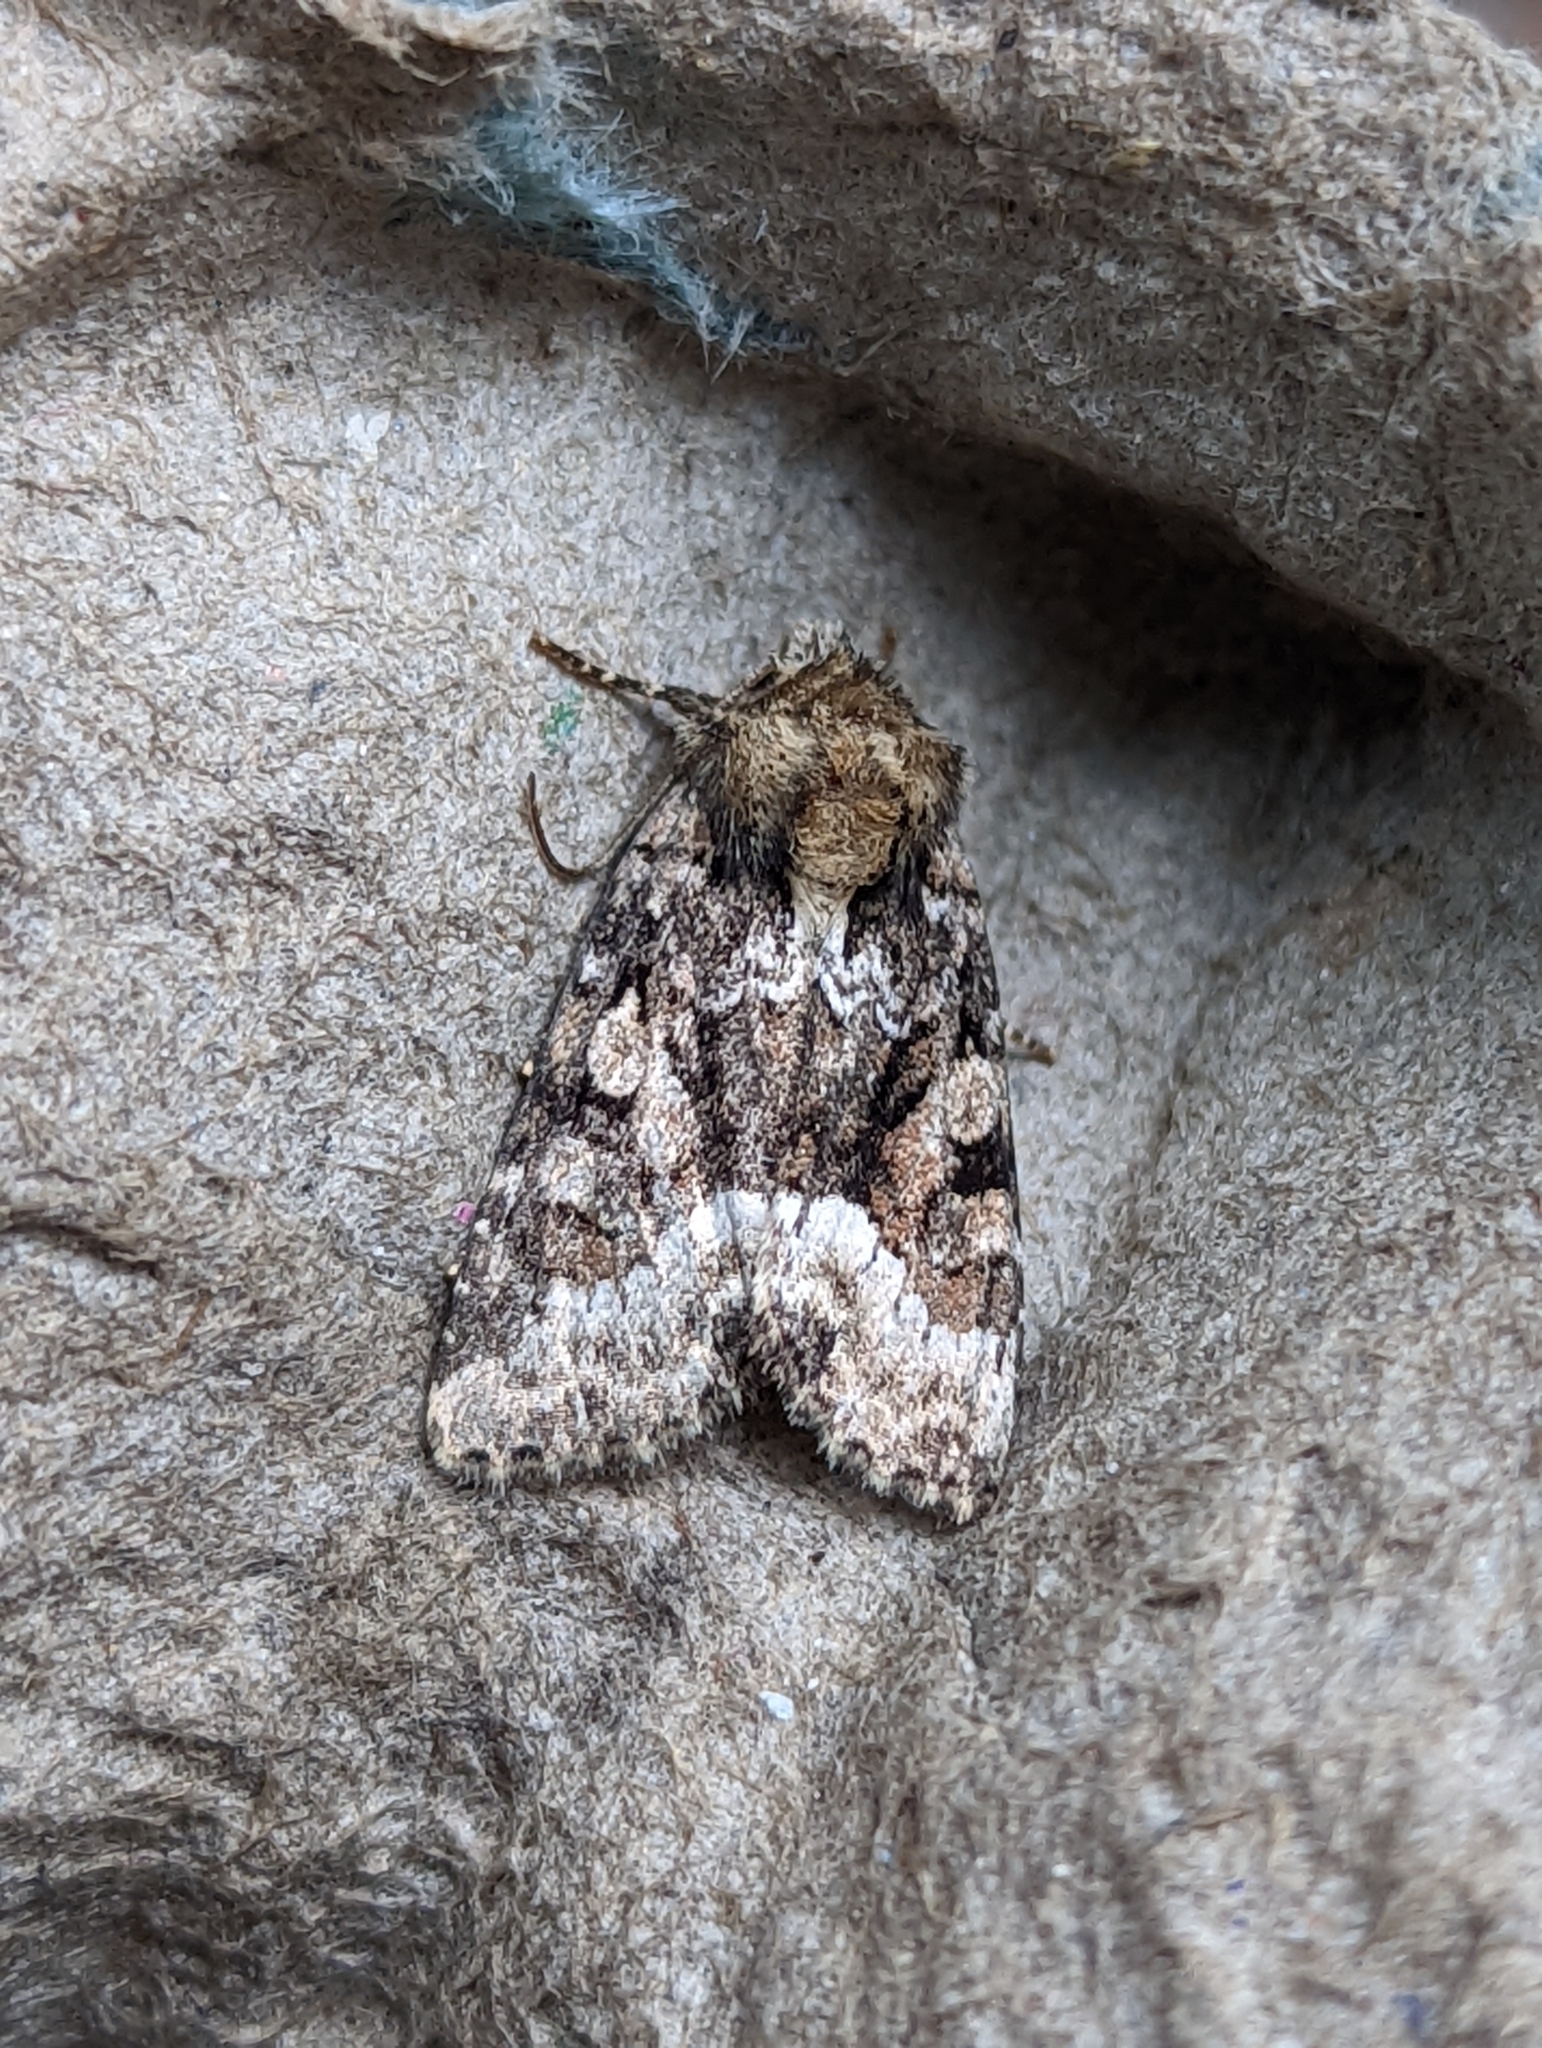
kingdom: Animalia
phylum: Arthropoda
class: Insecta
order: Lepidoptera
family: Noctuidae
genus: Oligia
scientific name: Oligia strigilis
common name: Marbled minor
